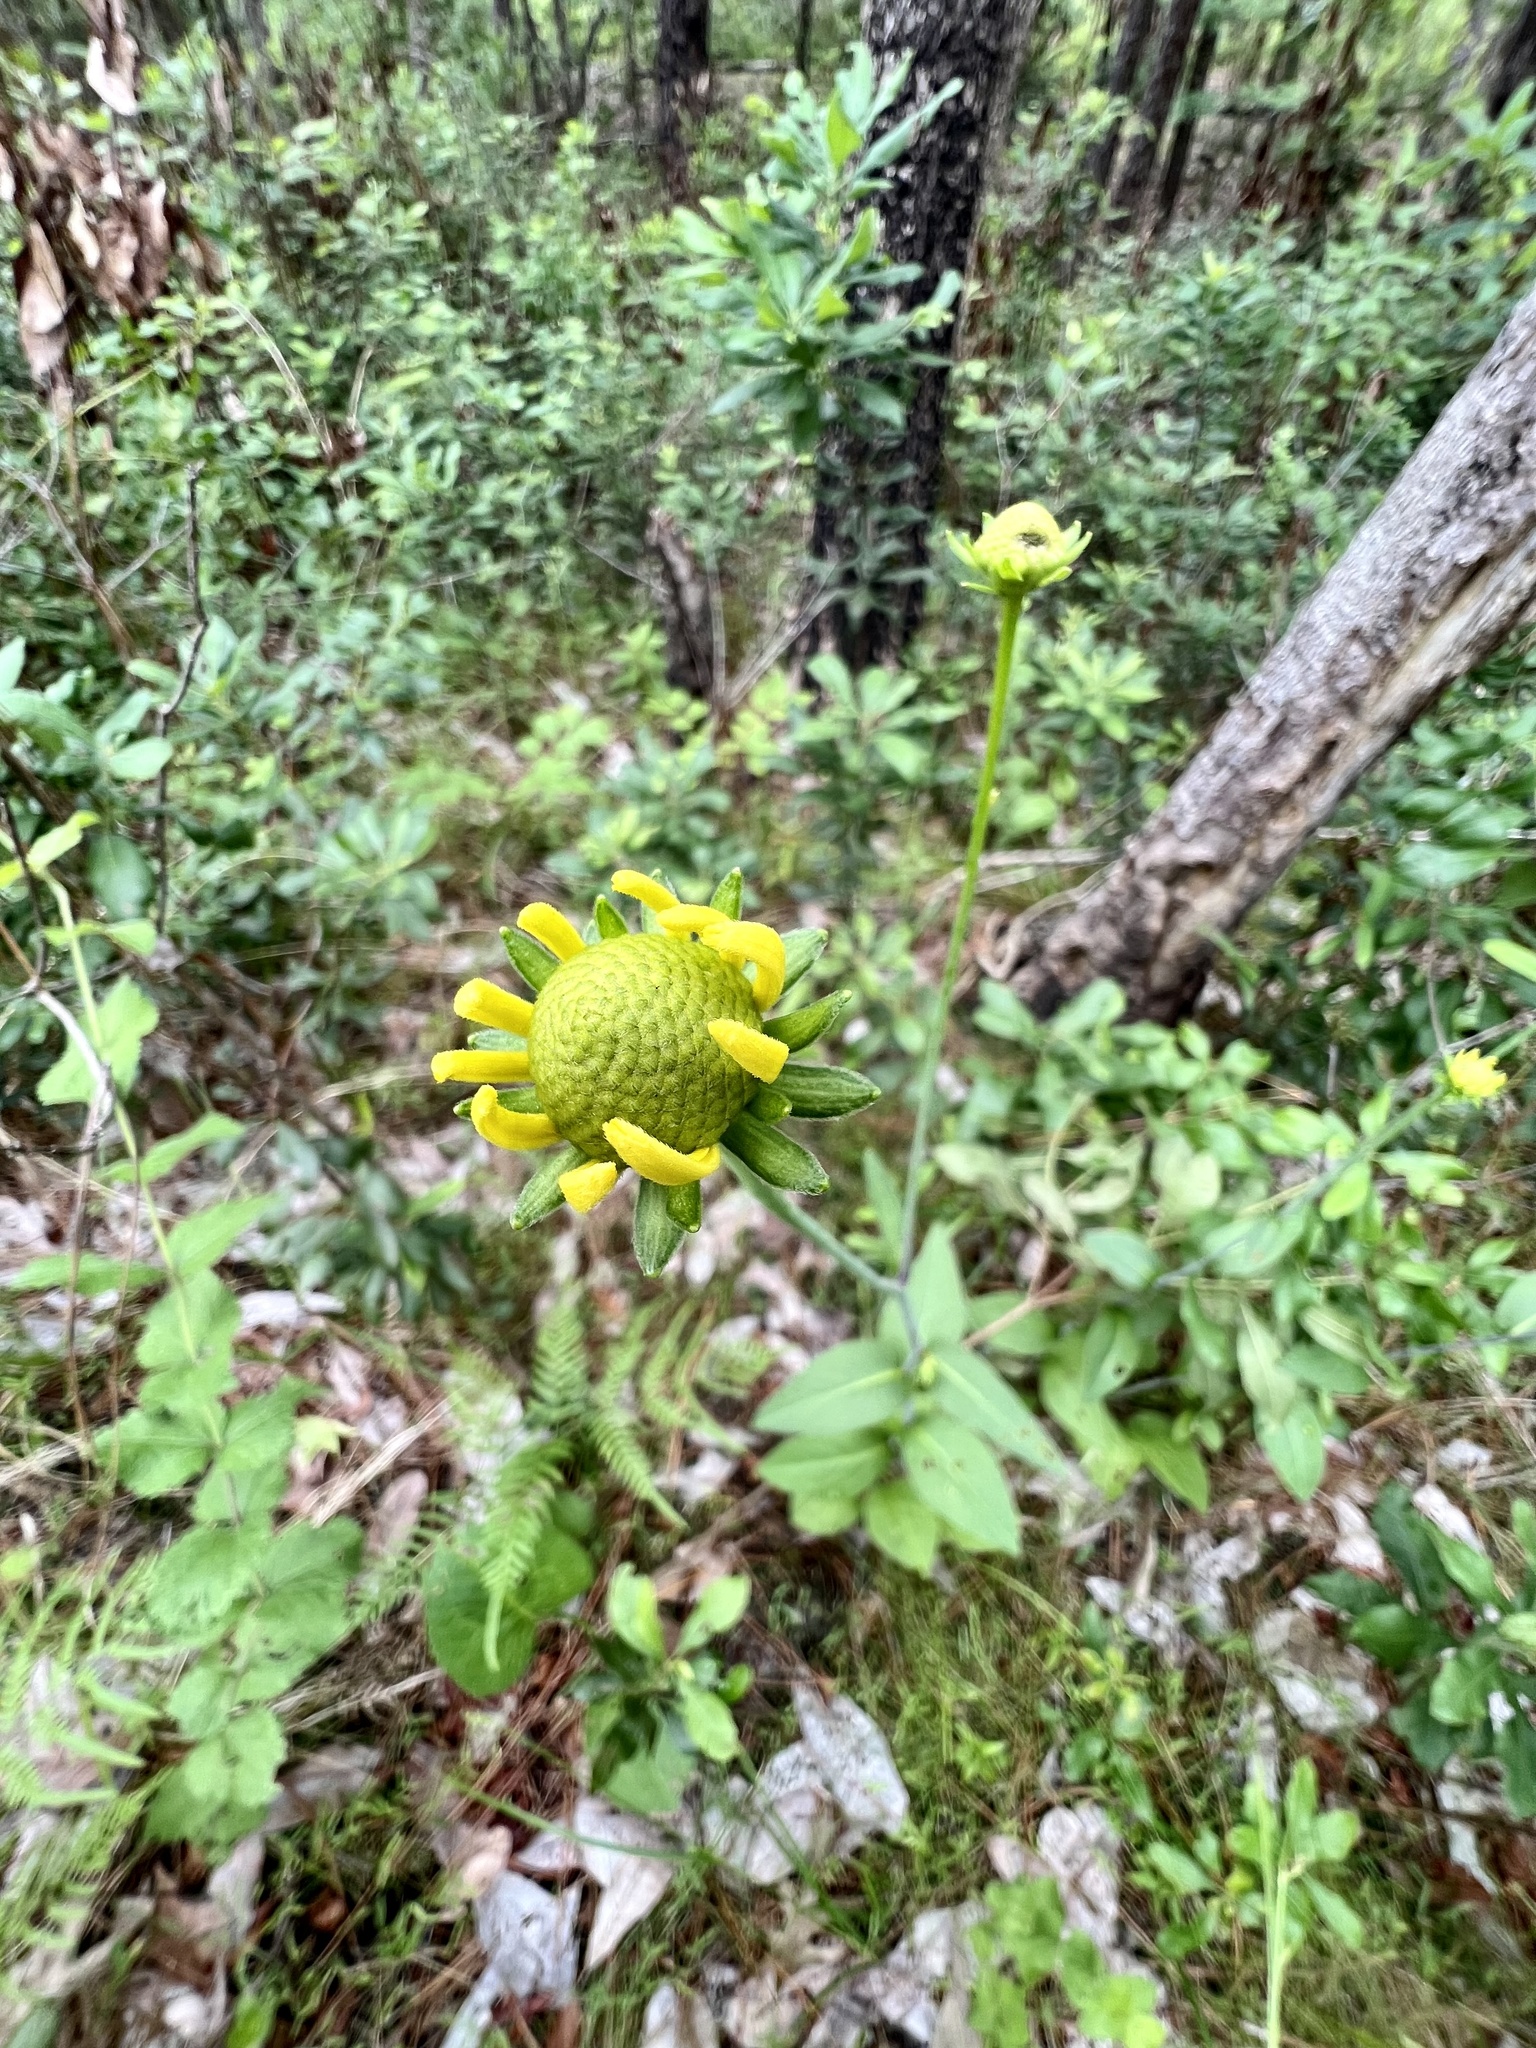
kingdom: Plantae
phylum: Tracheophyta
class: Magnoliopsida
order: Asterales
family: Asteraceae
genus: Rudbeckia
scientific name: Rudbeckia scabrifolia
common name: Rough-leaf coneflower
